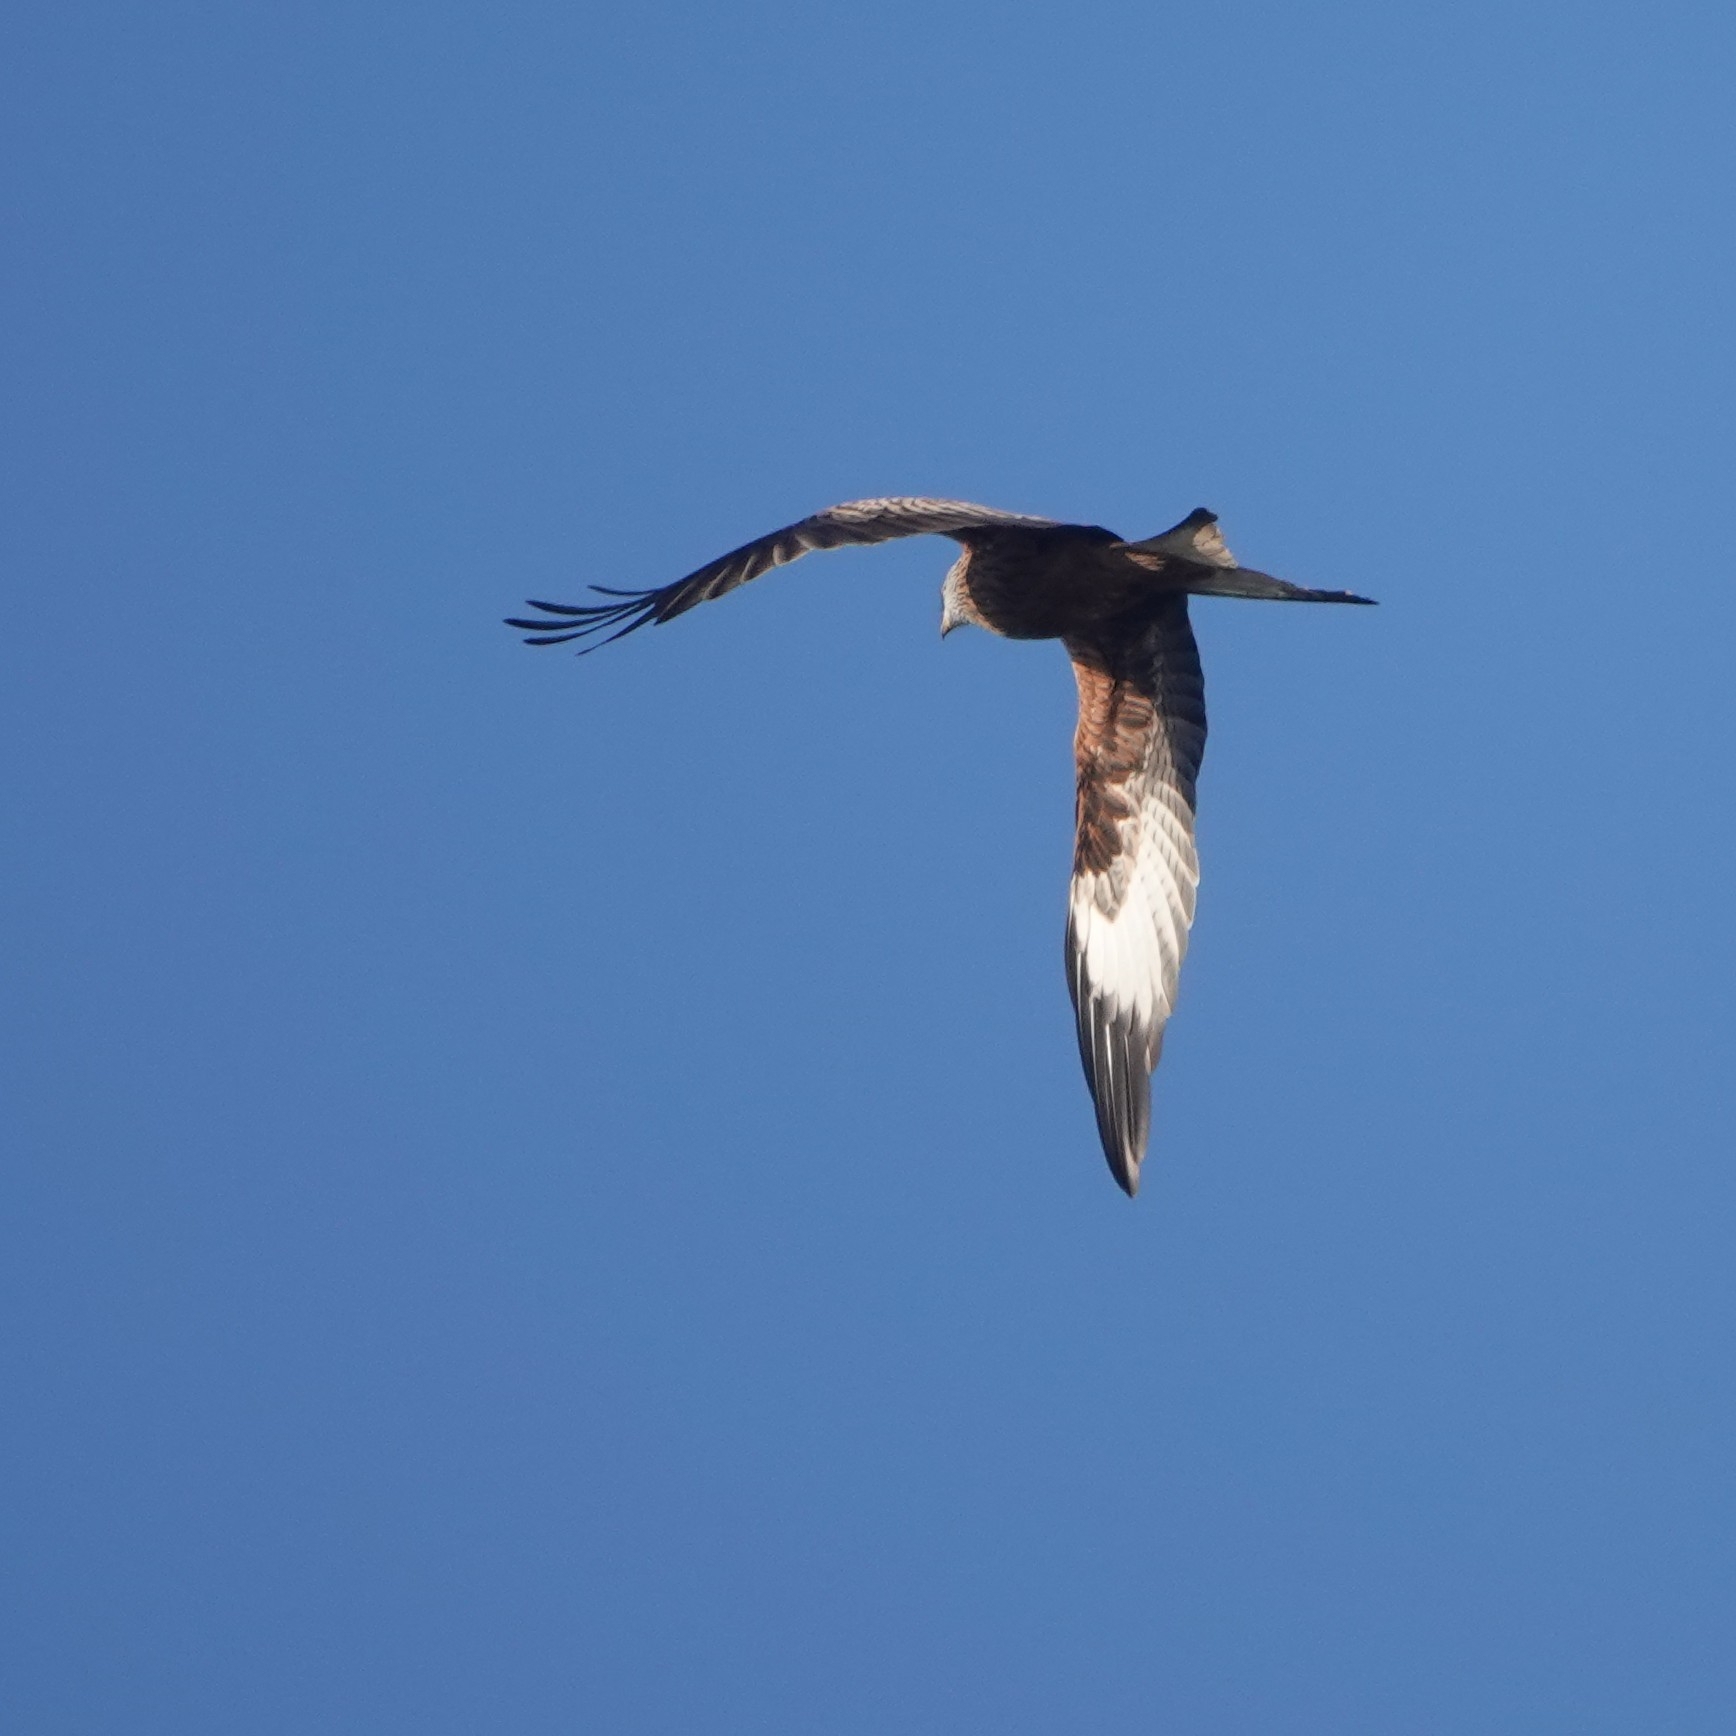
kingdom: Animalia
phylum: Chordata
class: Aves
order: Accipitriformes
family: Accipitridae
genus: Milvus
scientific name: Milvus milvus
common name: Red kite
